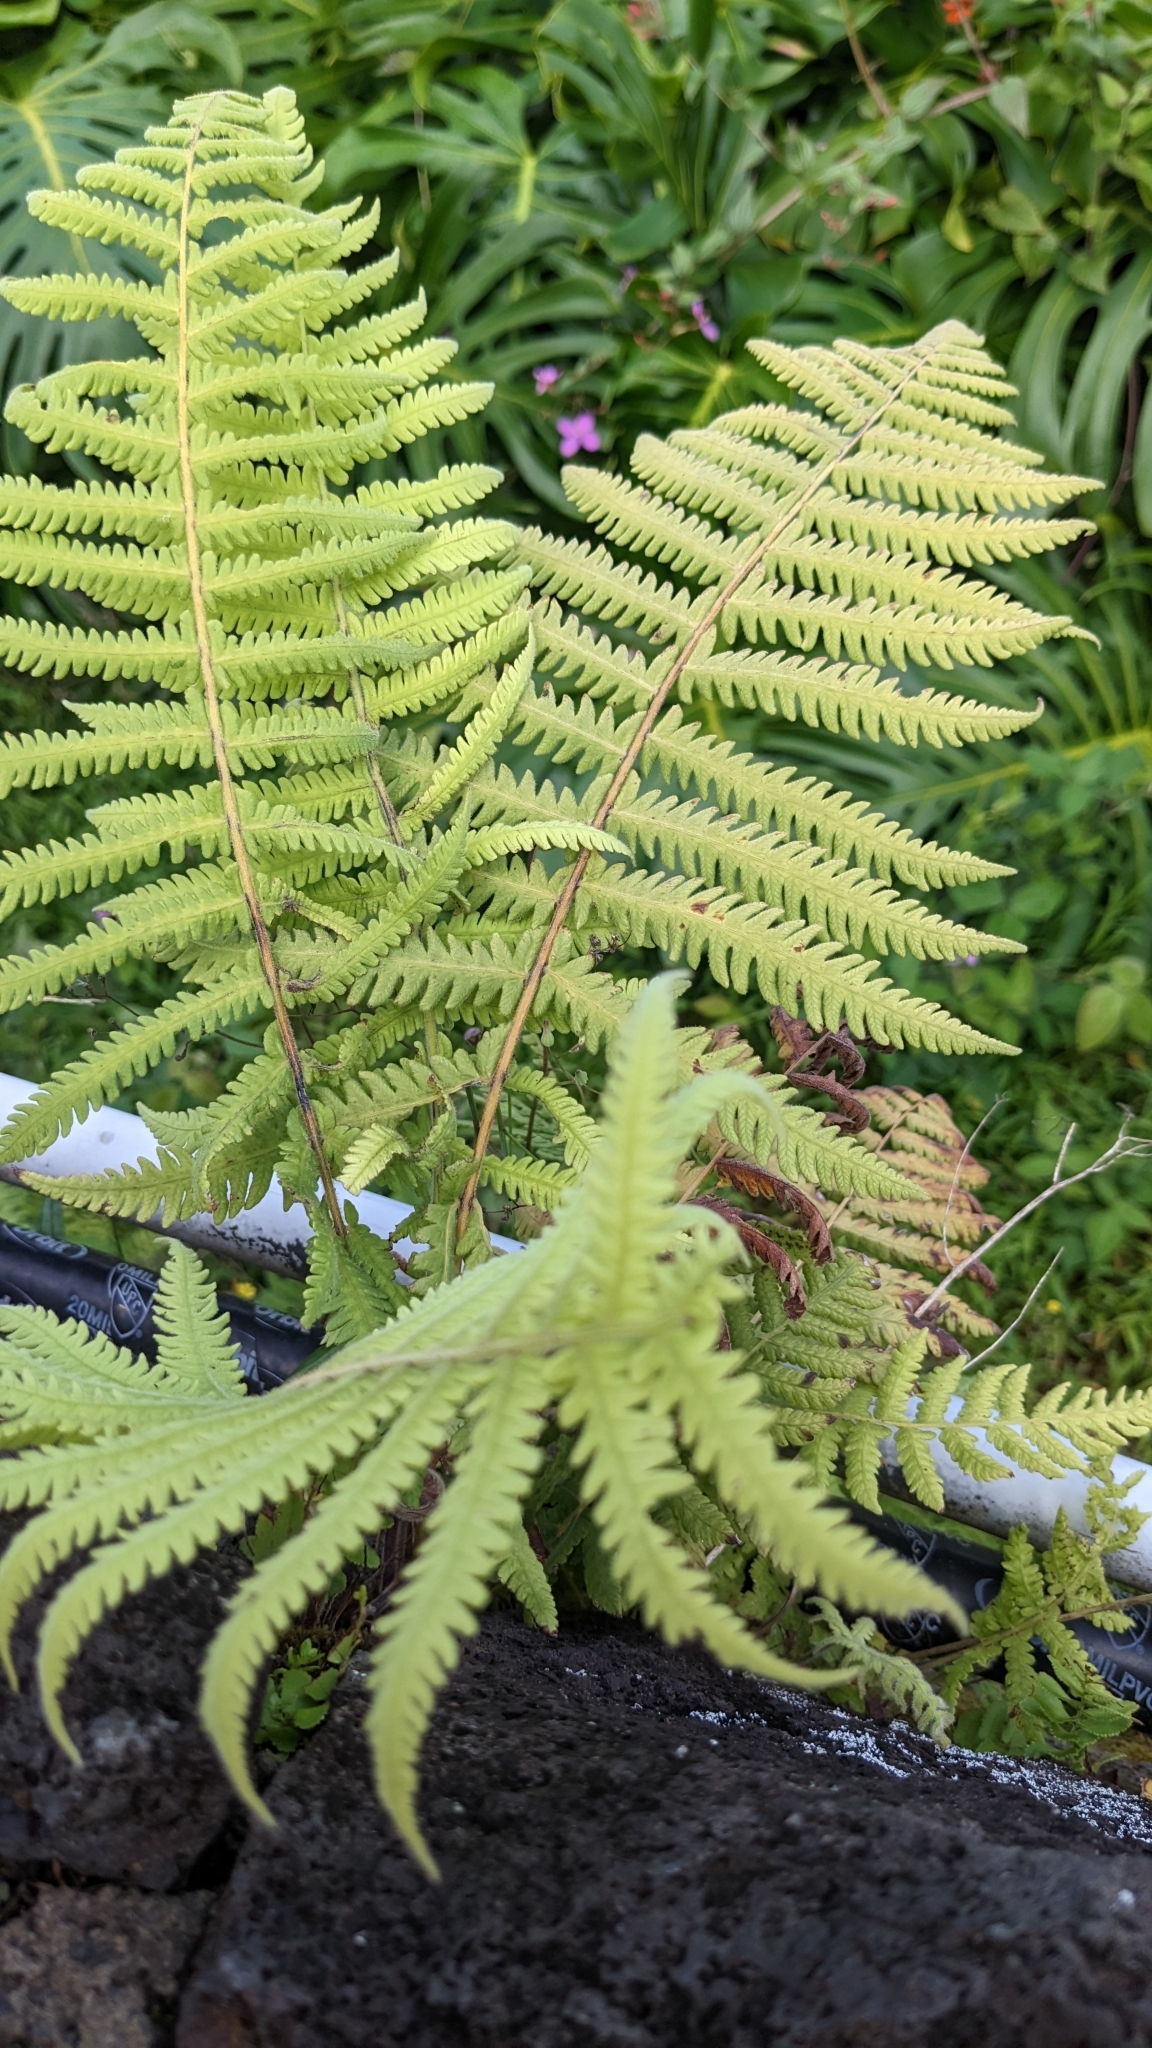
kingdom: Plantae
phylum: Tracheophyta
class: Polypodiopsida
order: Polypodiales
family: Thelypteridaceae
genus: Christella
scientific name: Christella parasitica
